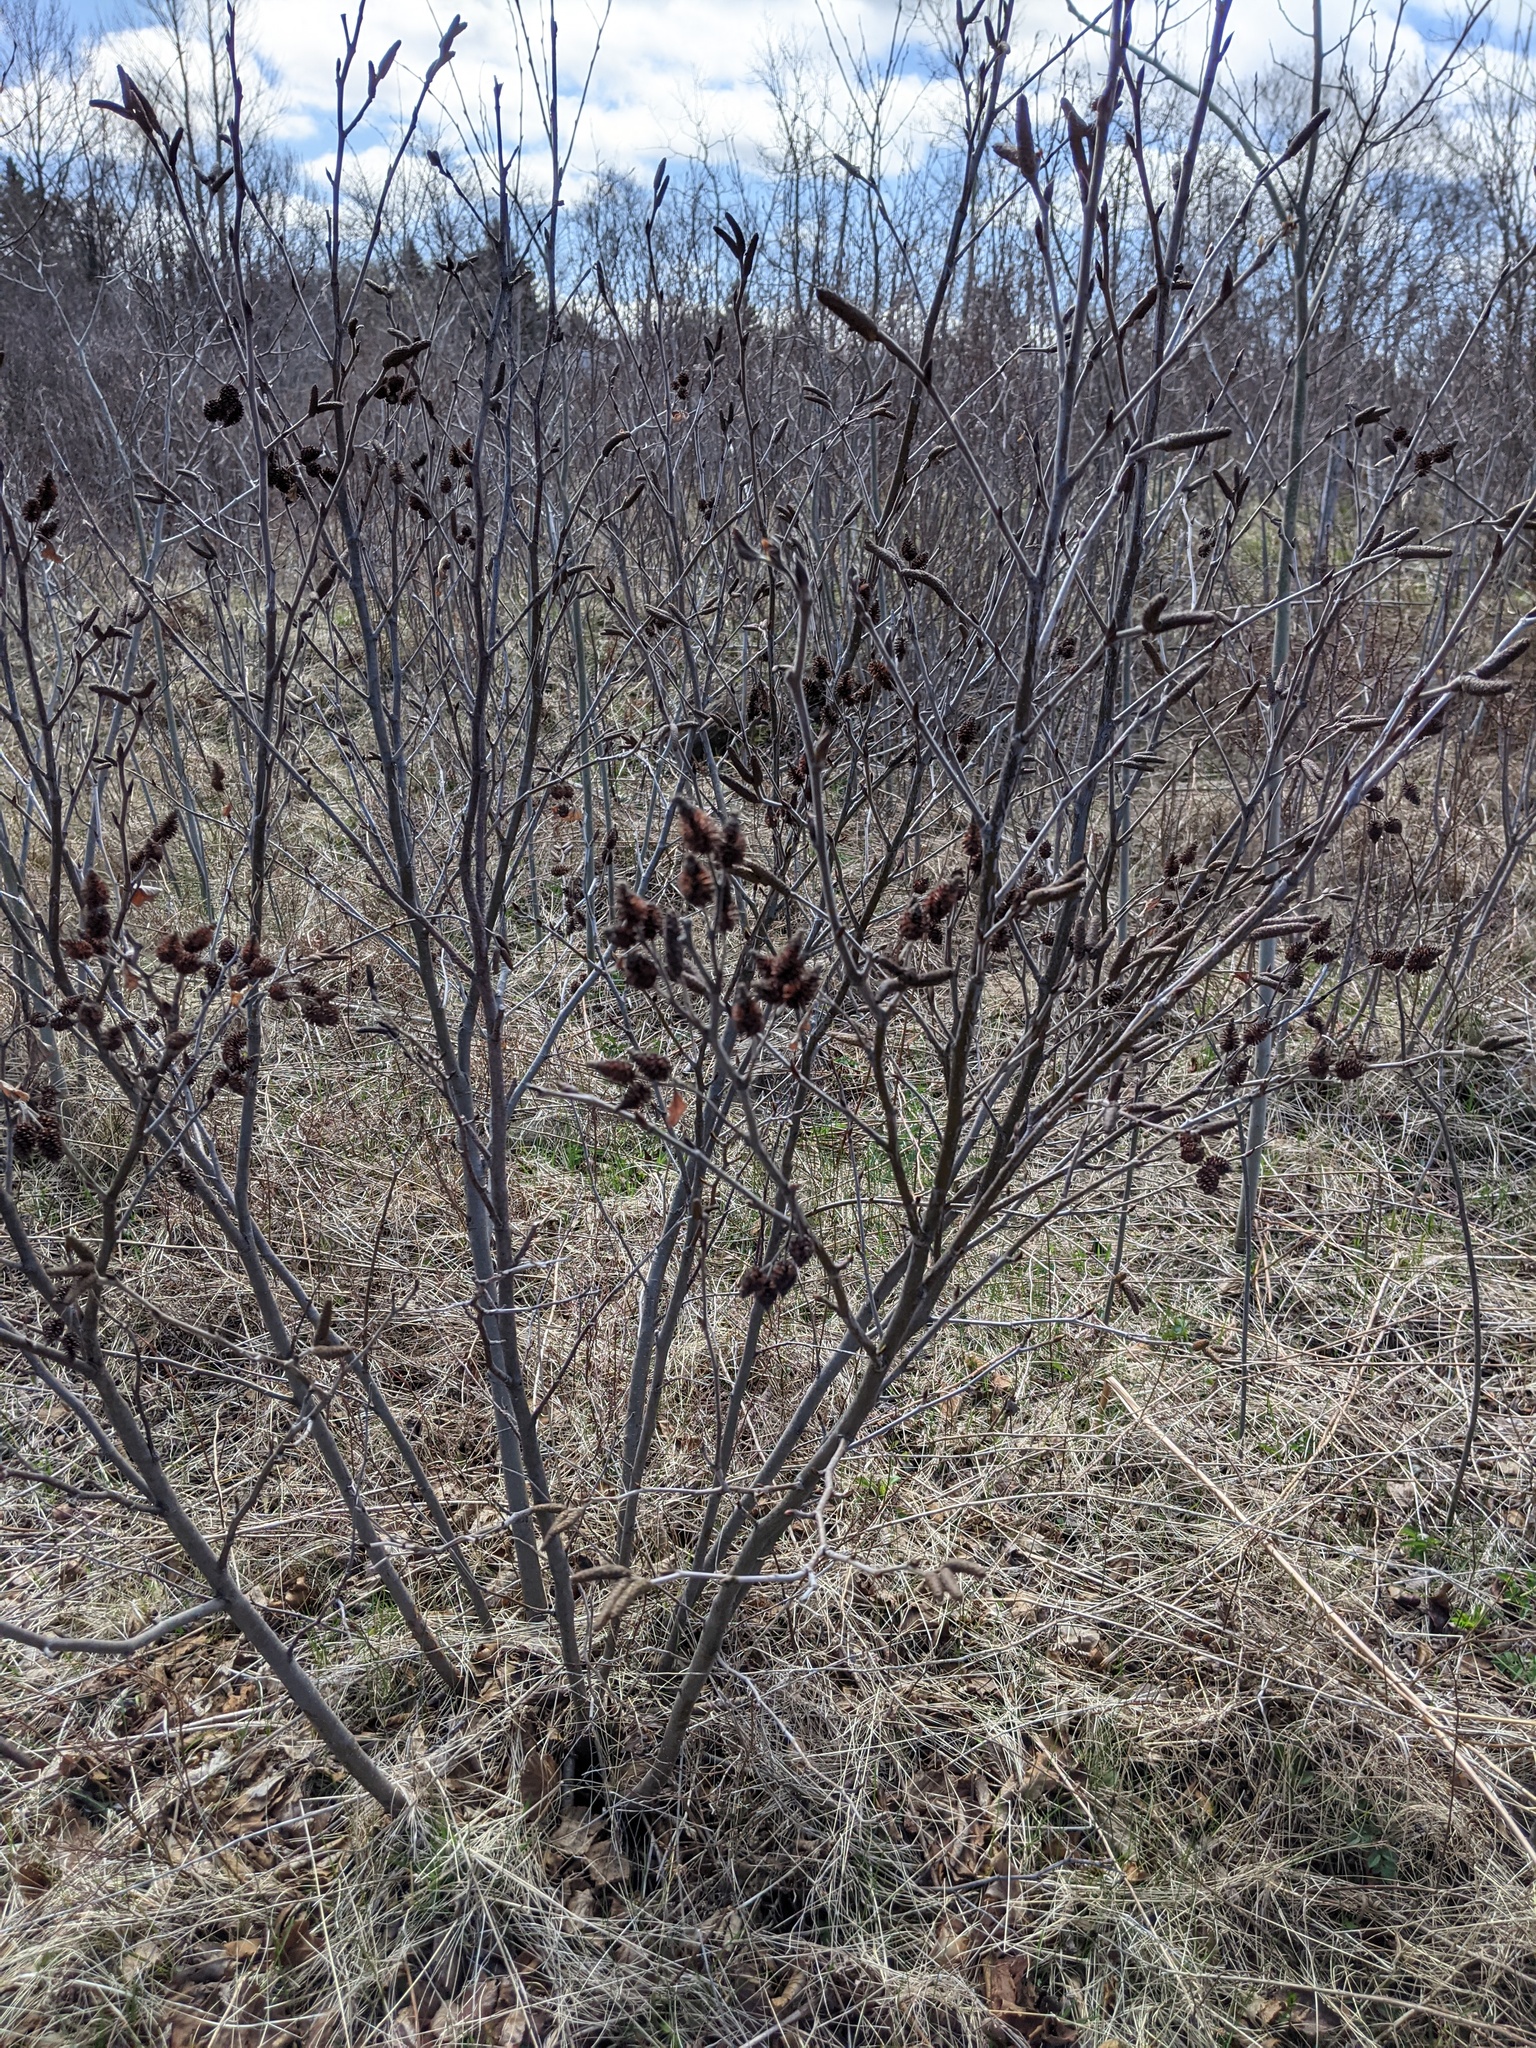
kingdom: Plantae
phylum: Tracheophyta
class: Magnoliopsida
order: Fagales
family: Betulaceae
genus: Alnus
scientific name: Alnus alnobetula
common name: Green alder
